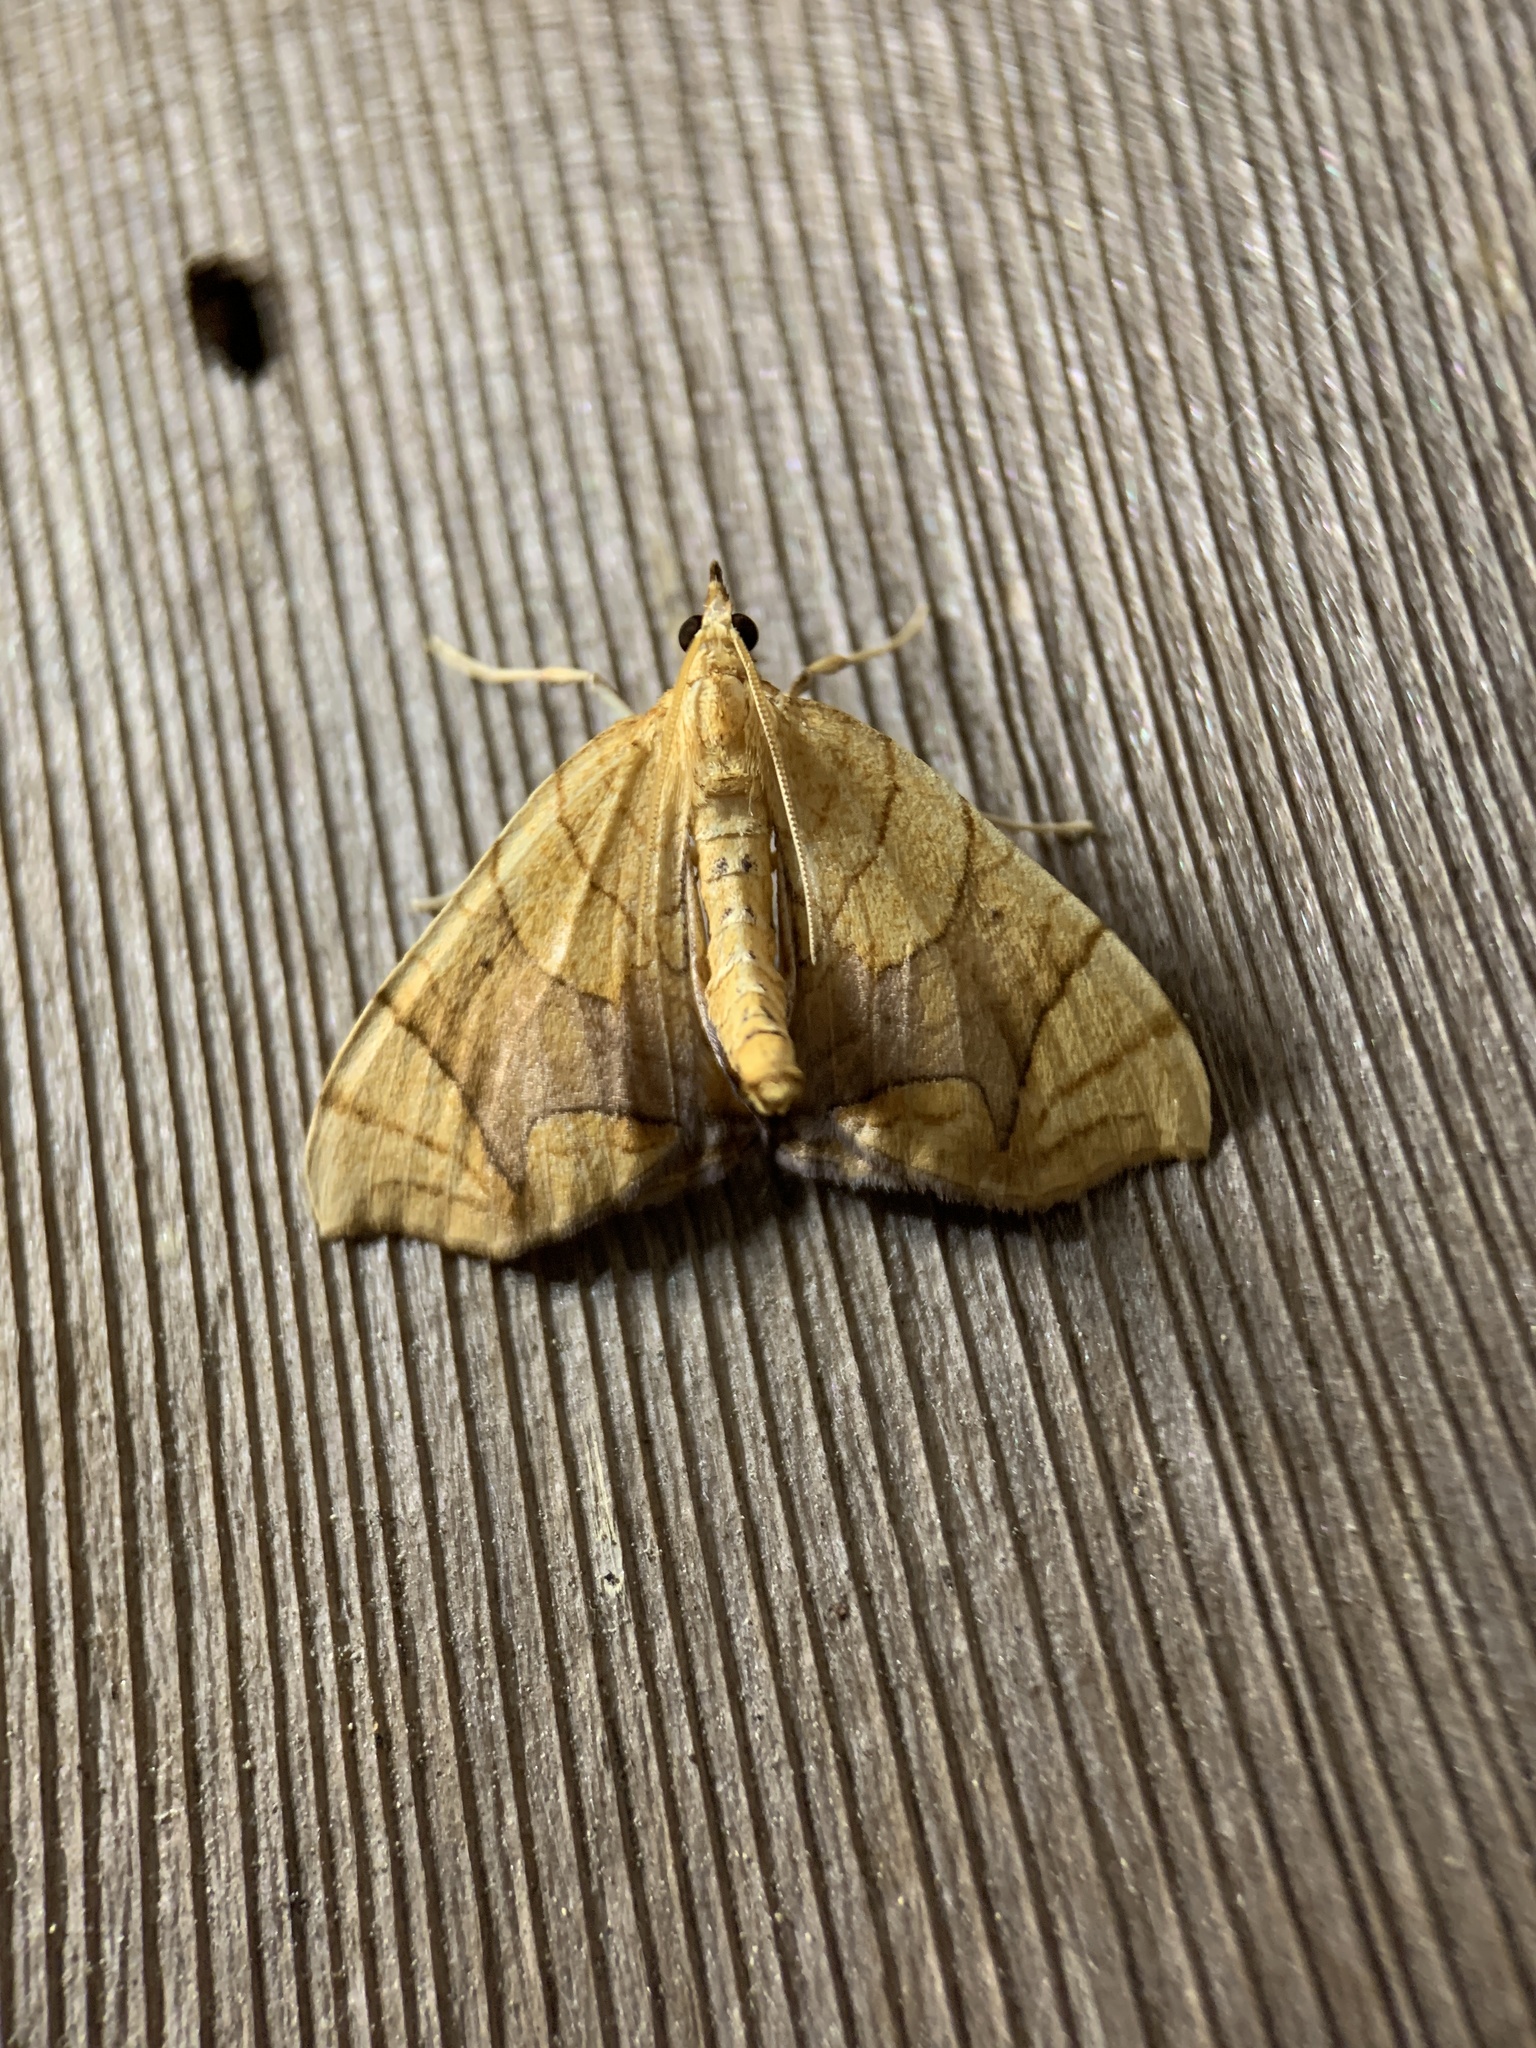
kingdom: Animalia
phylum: Arthropoda
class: Insecta
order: Lepidoptera
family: Geometridae
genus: Eulithis
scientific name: Eulithis
